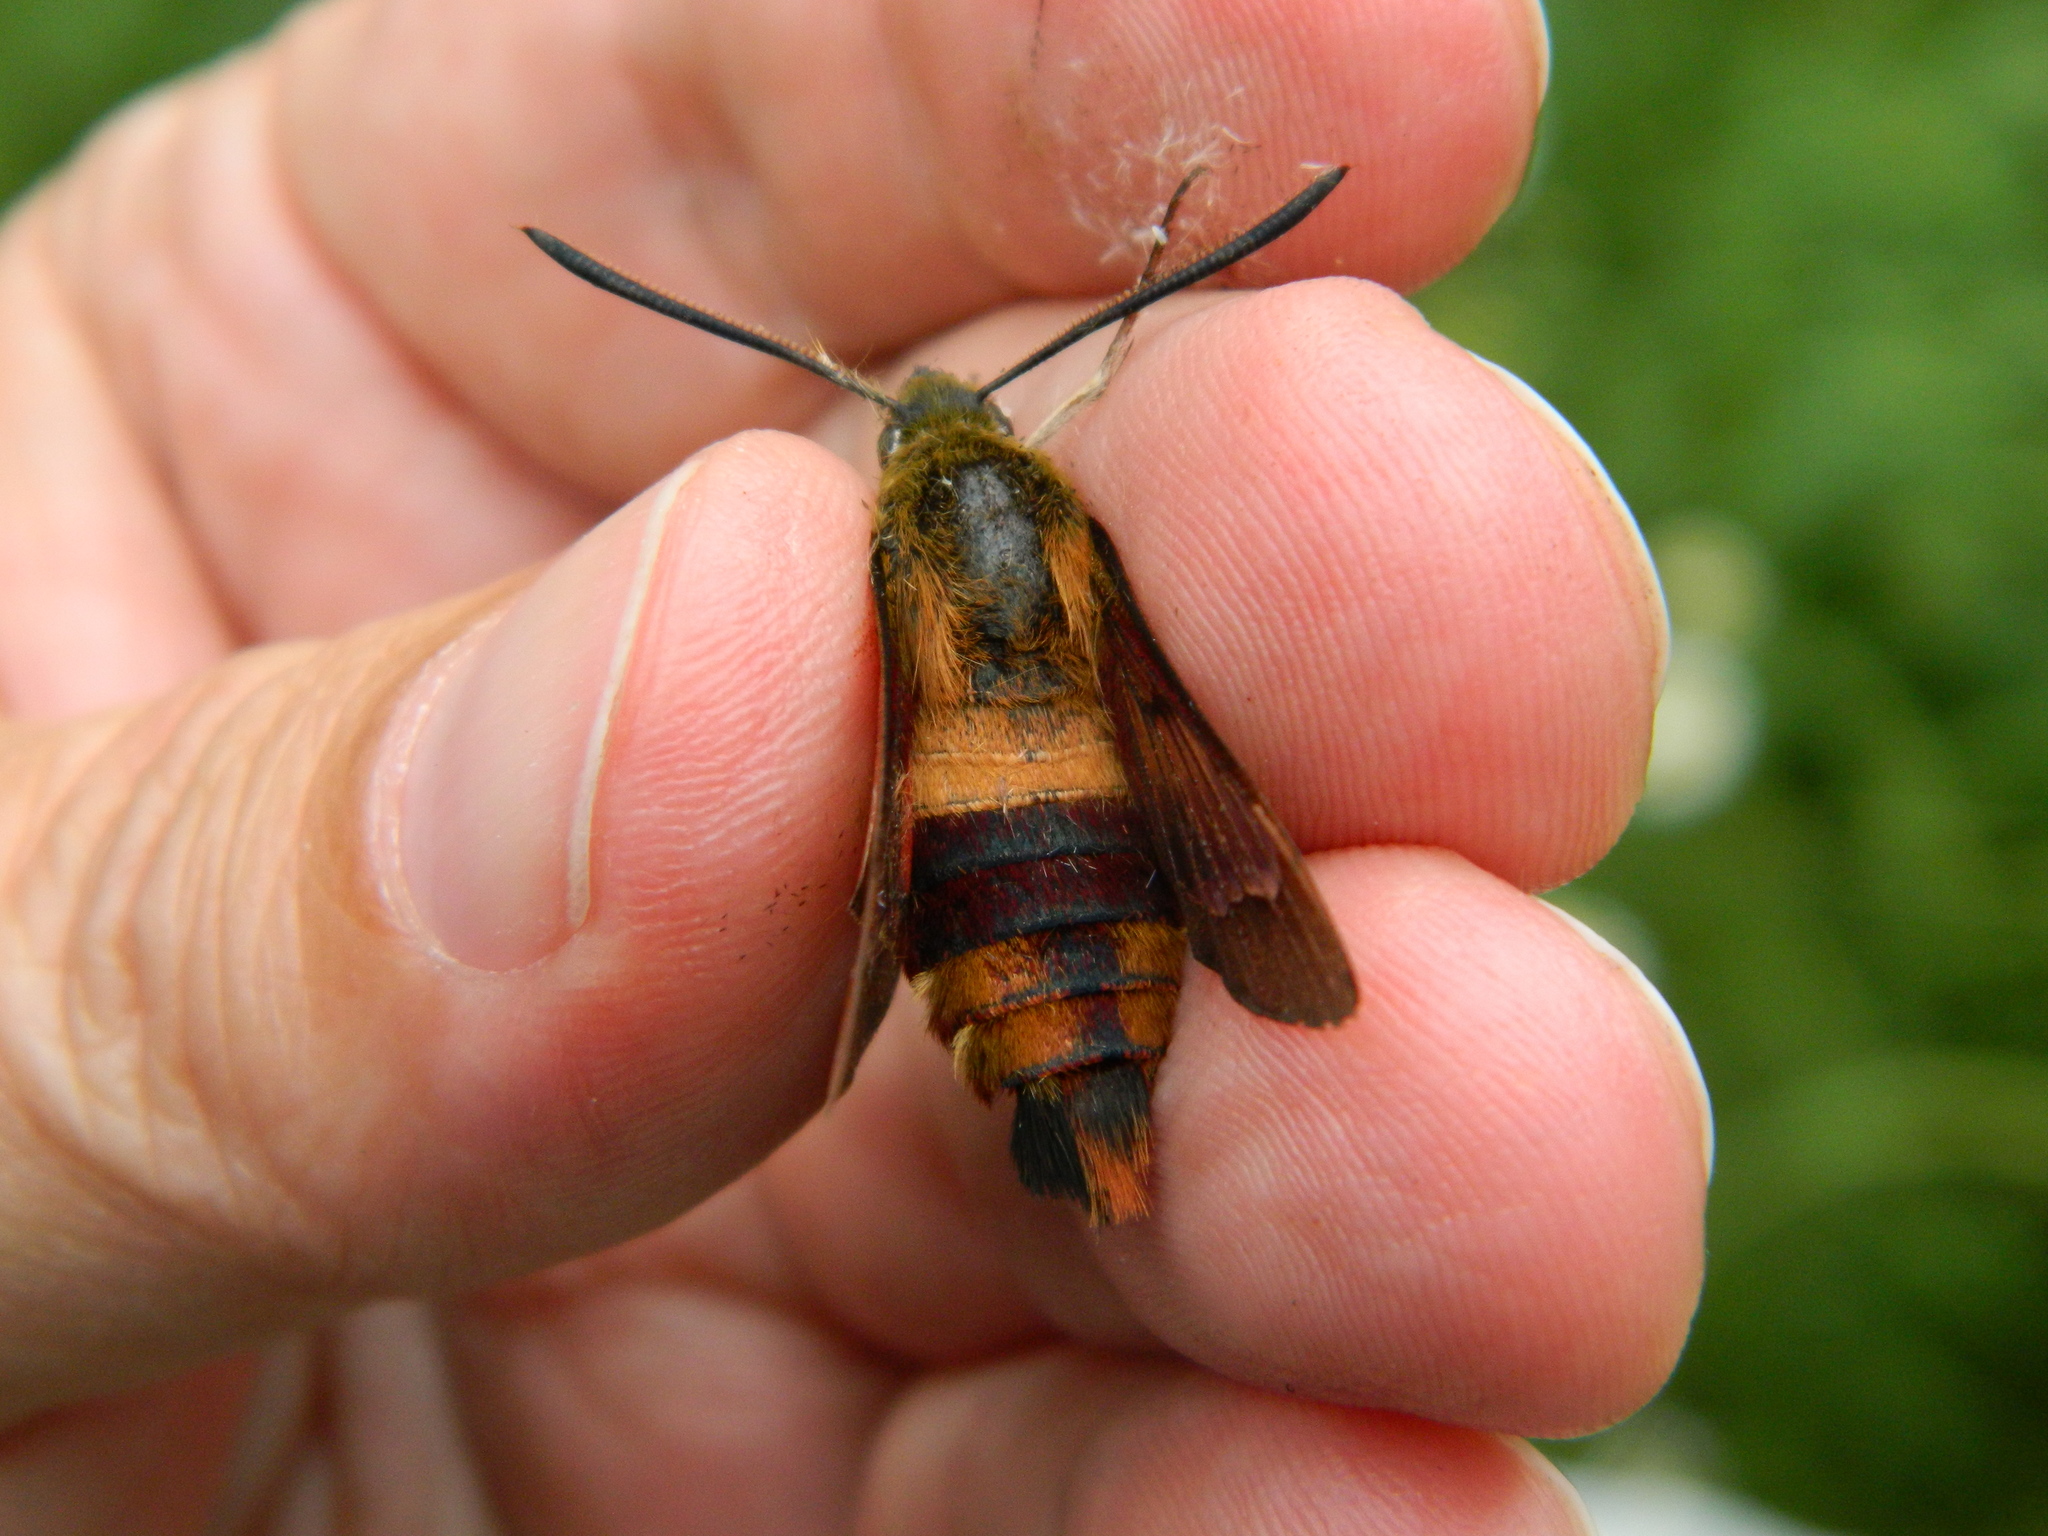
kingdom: Animalia
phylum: Arthropoda
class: Insecta
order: Lepidoptera
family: Sphingidae
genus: Hemaris
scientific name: Hemaris thysbe
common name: Common clear-wing
